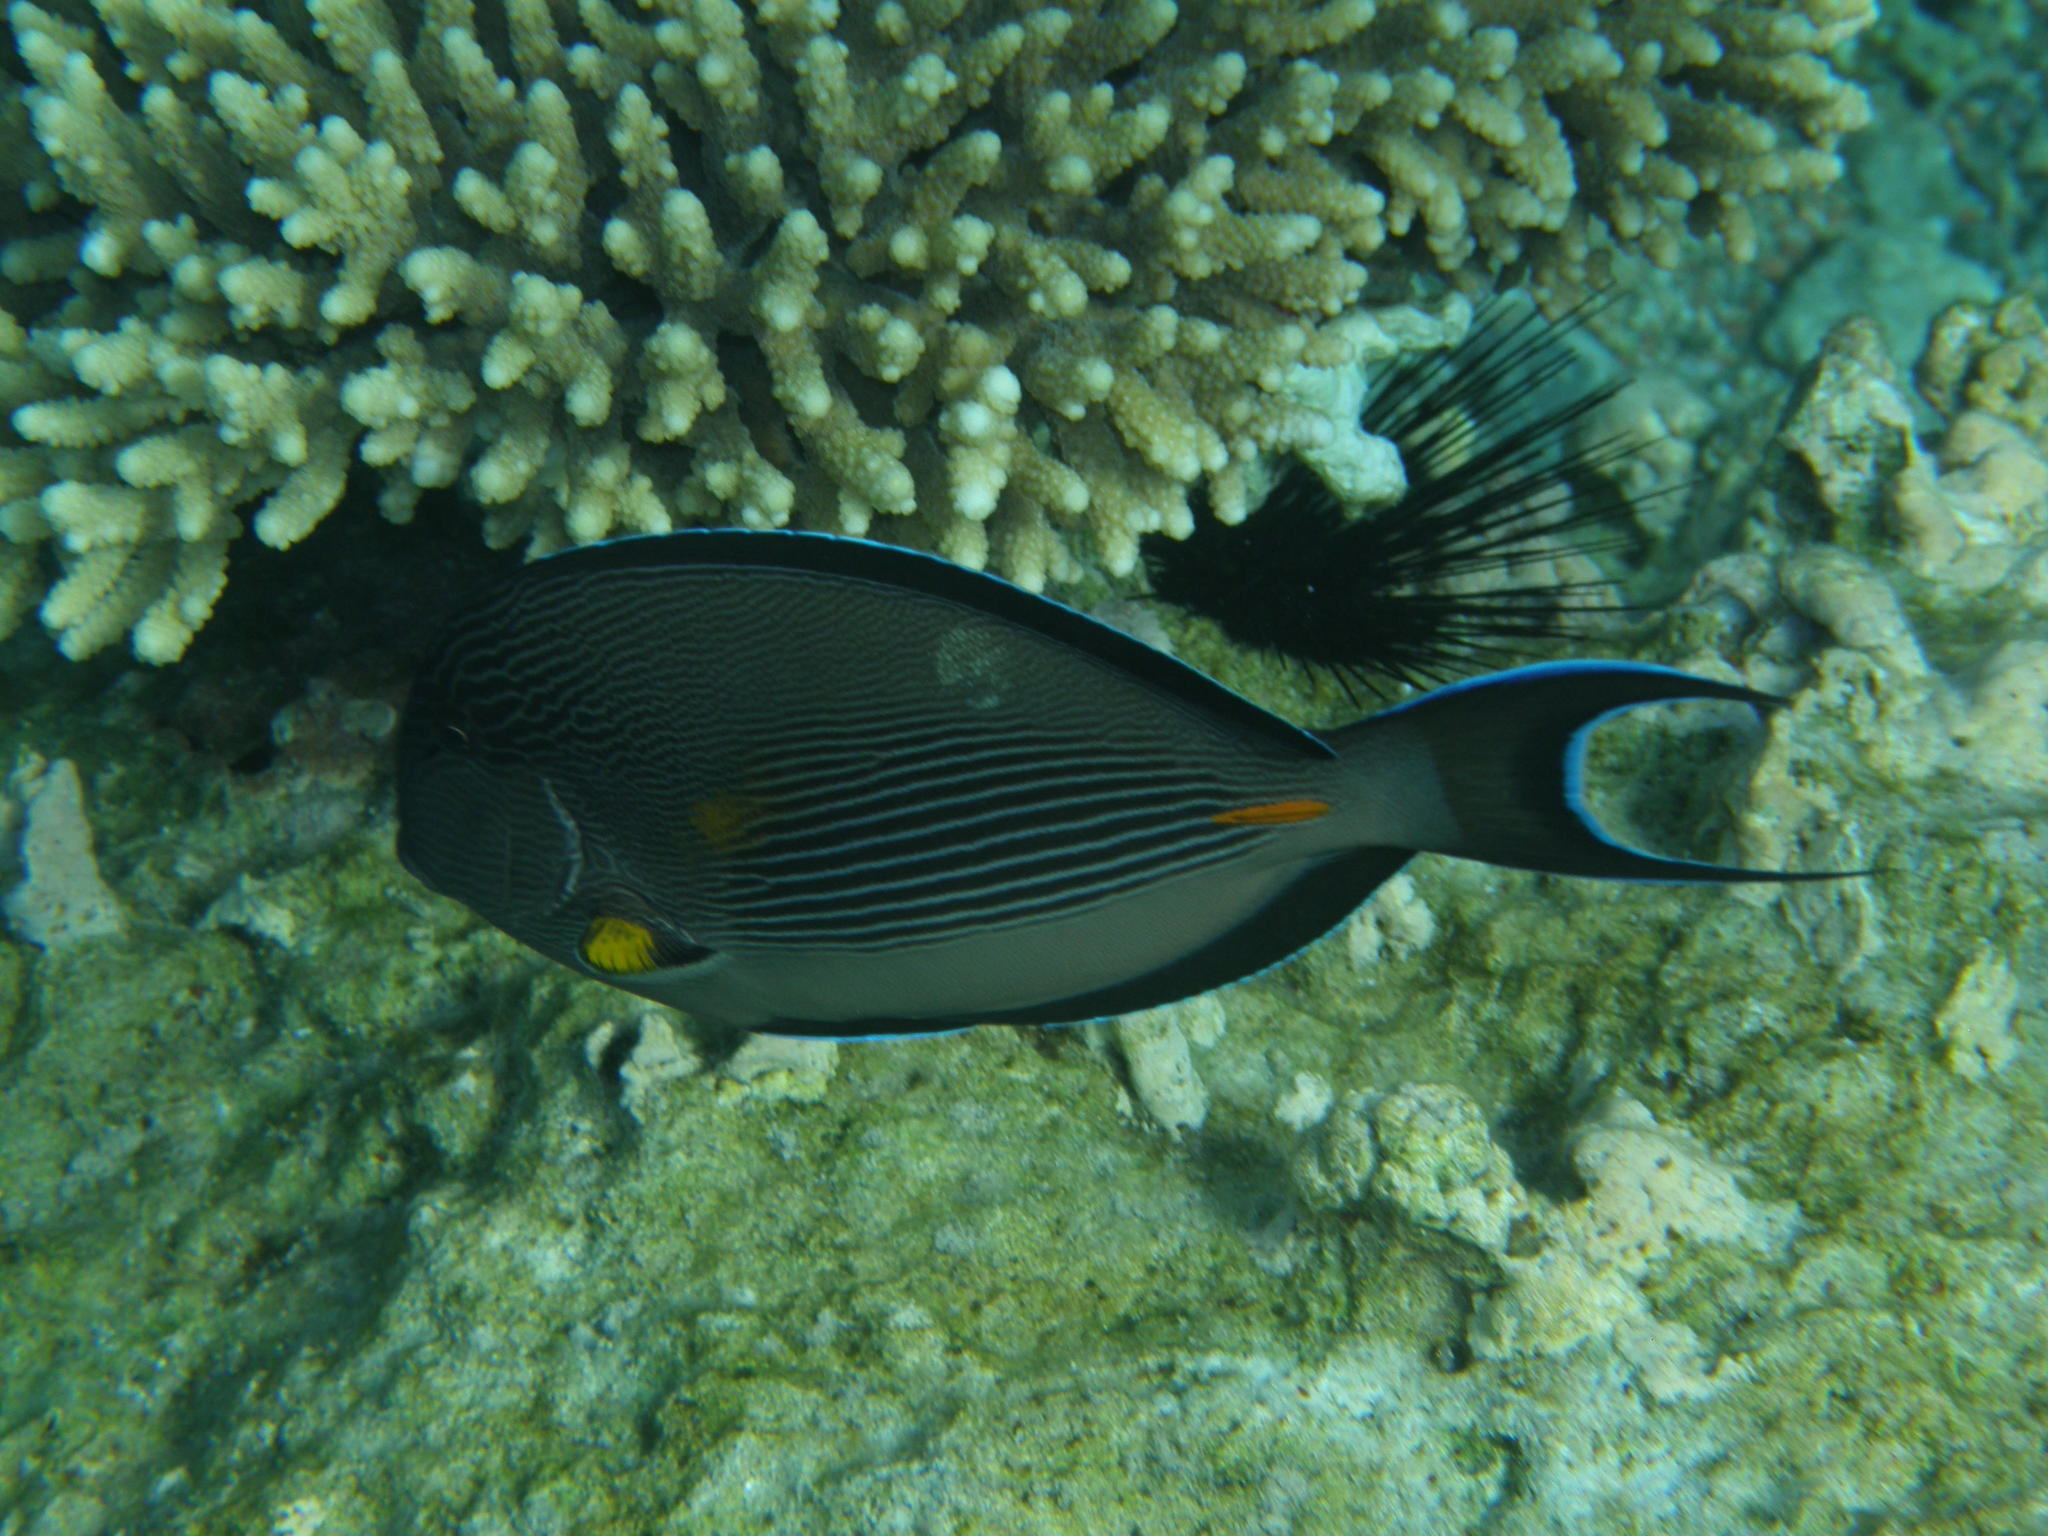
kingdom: Animalia
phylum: Chordata
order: Perciformes
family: Acanthuridae
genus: Acanthurus
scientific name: Acanthurus sohal
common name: Red sea surgeonfish
